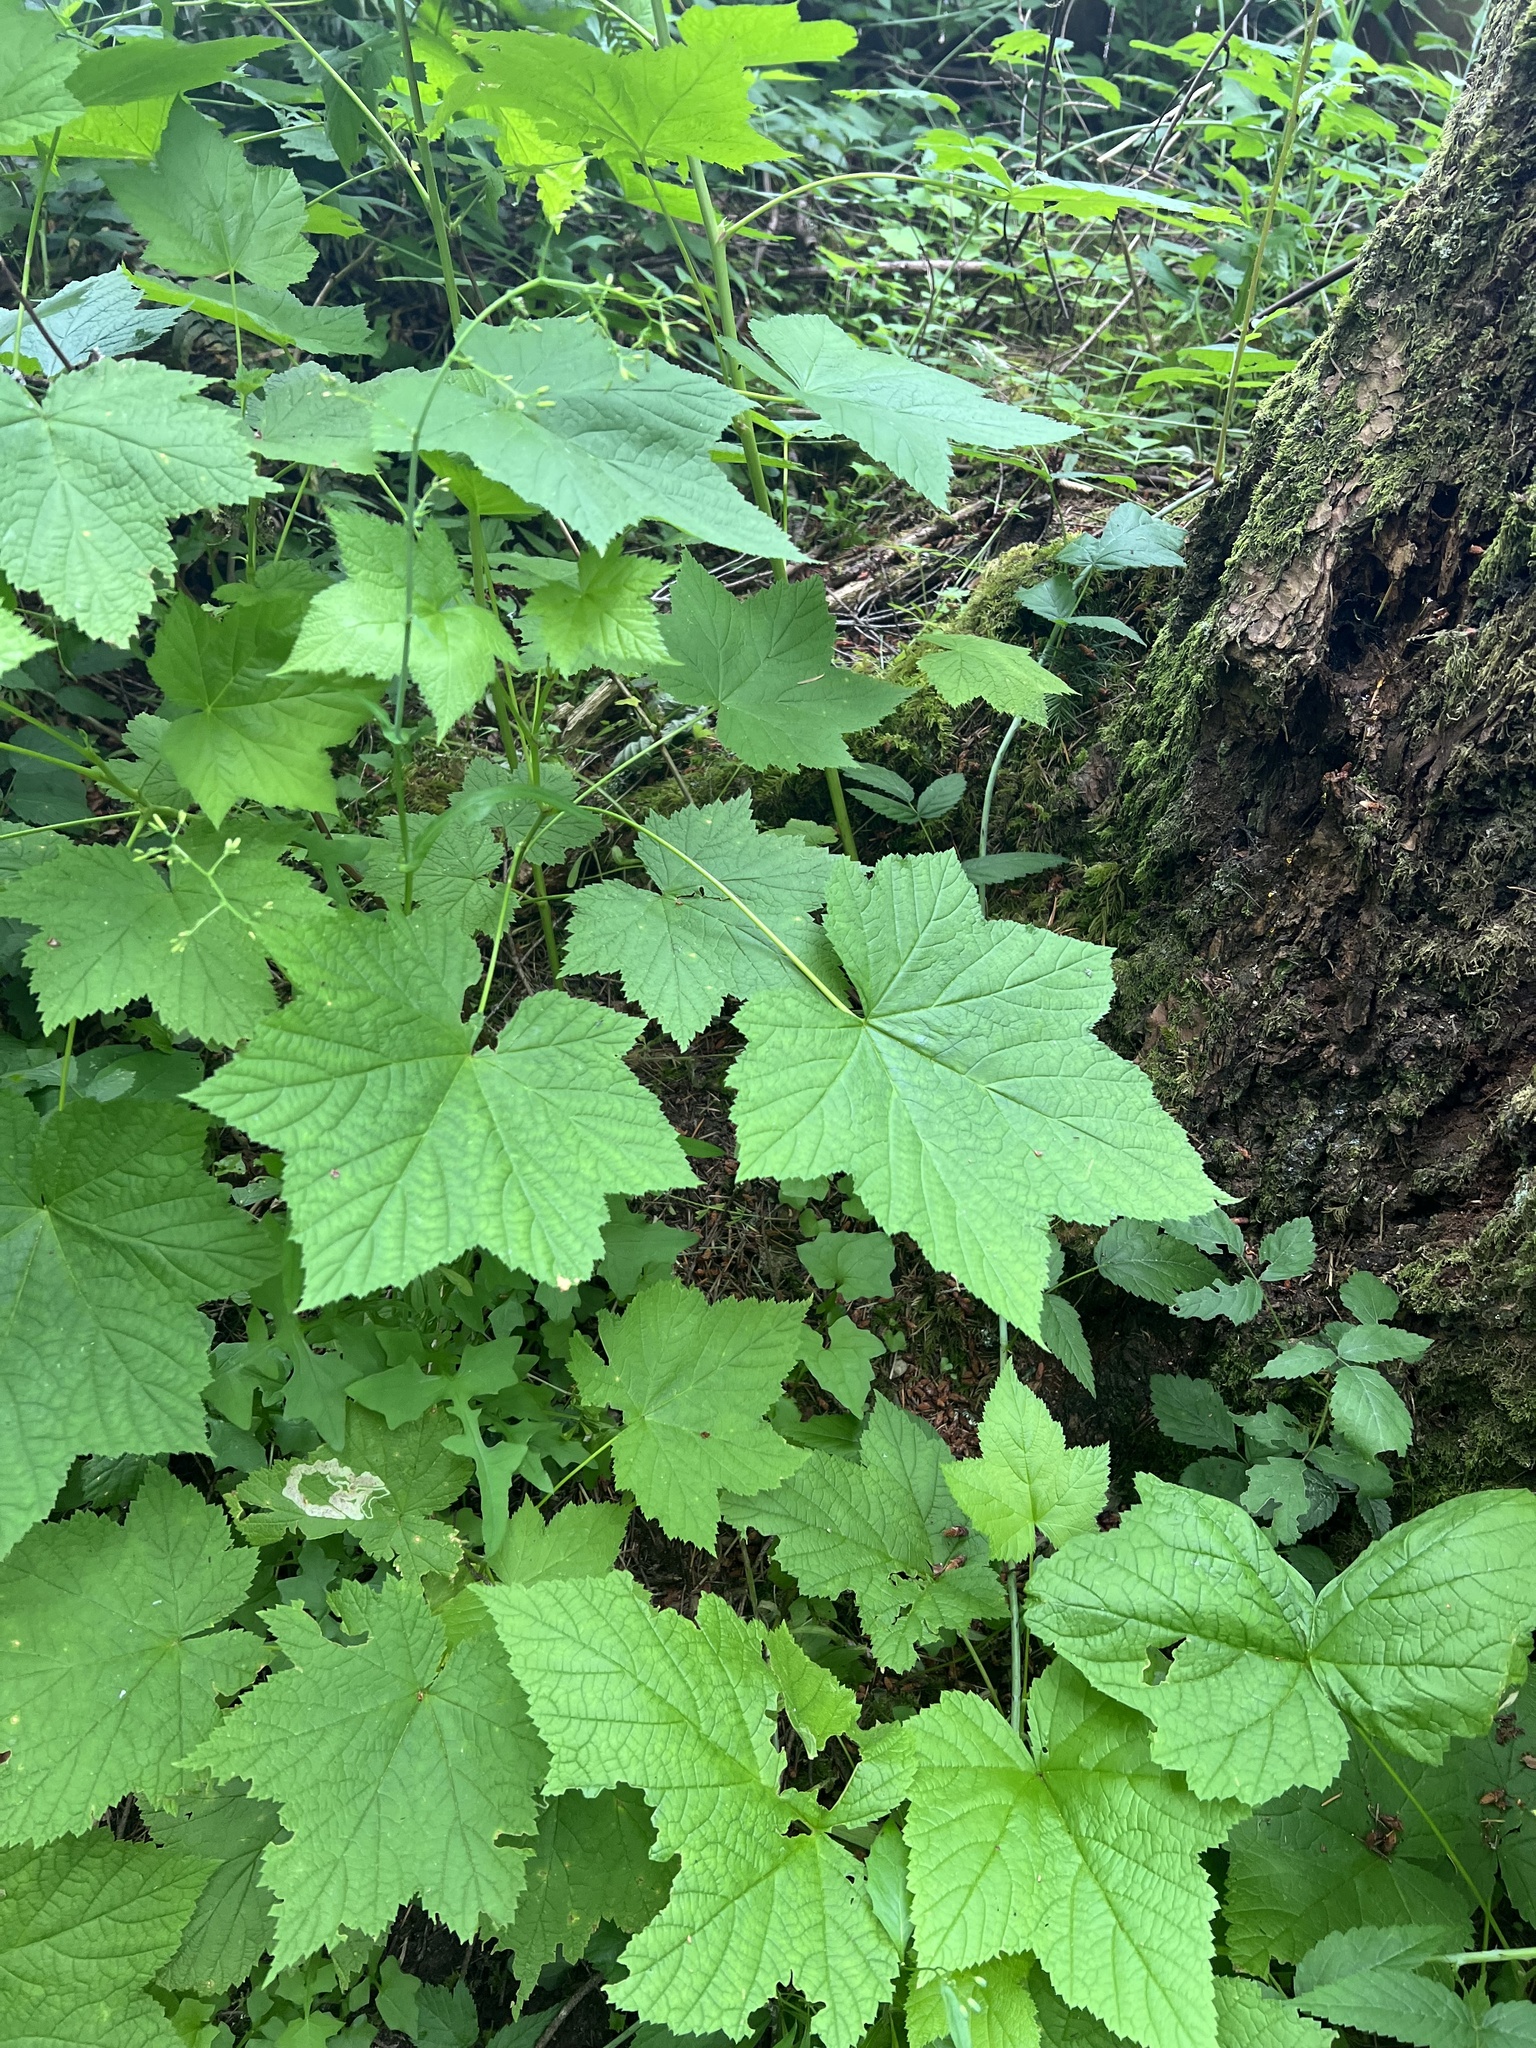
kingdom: Plantae
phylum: Tracheophyta
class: Magnoliopsida
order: Rosales
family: Rosaceae
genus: Rubus
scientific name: Rubus parviflorus
